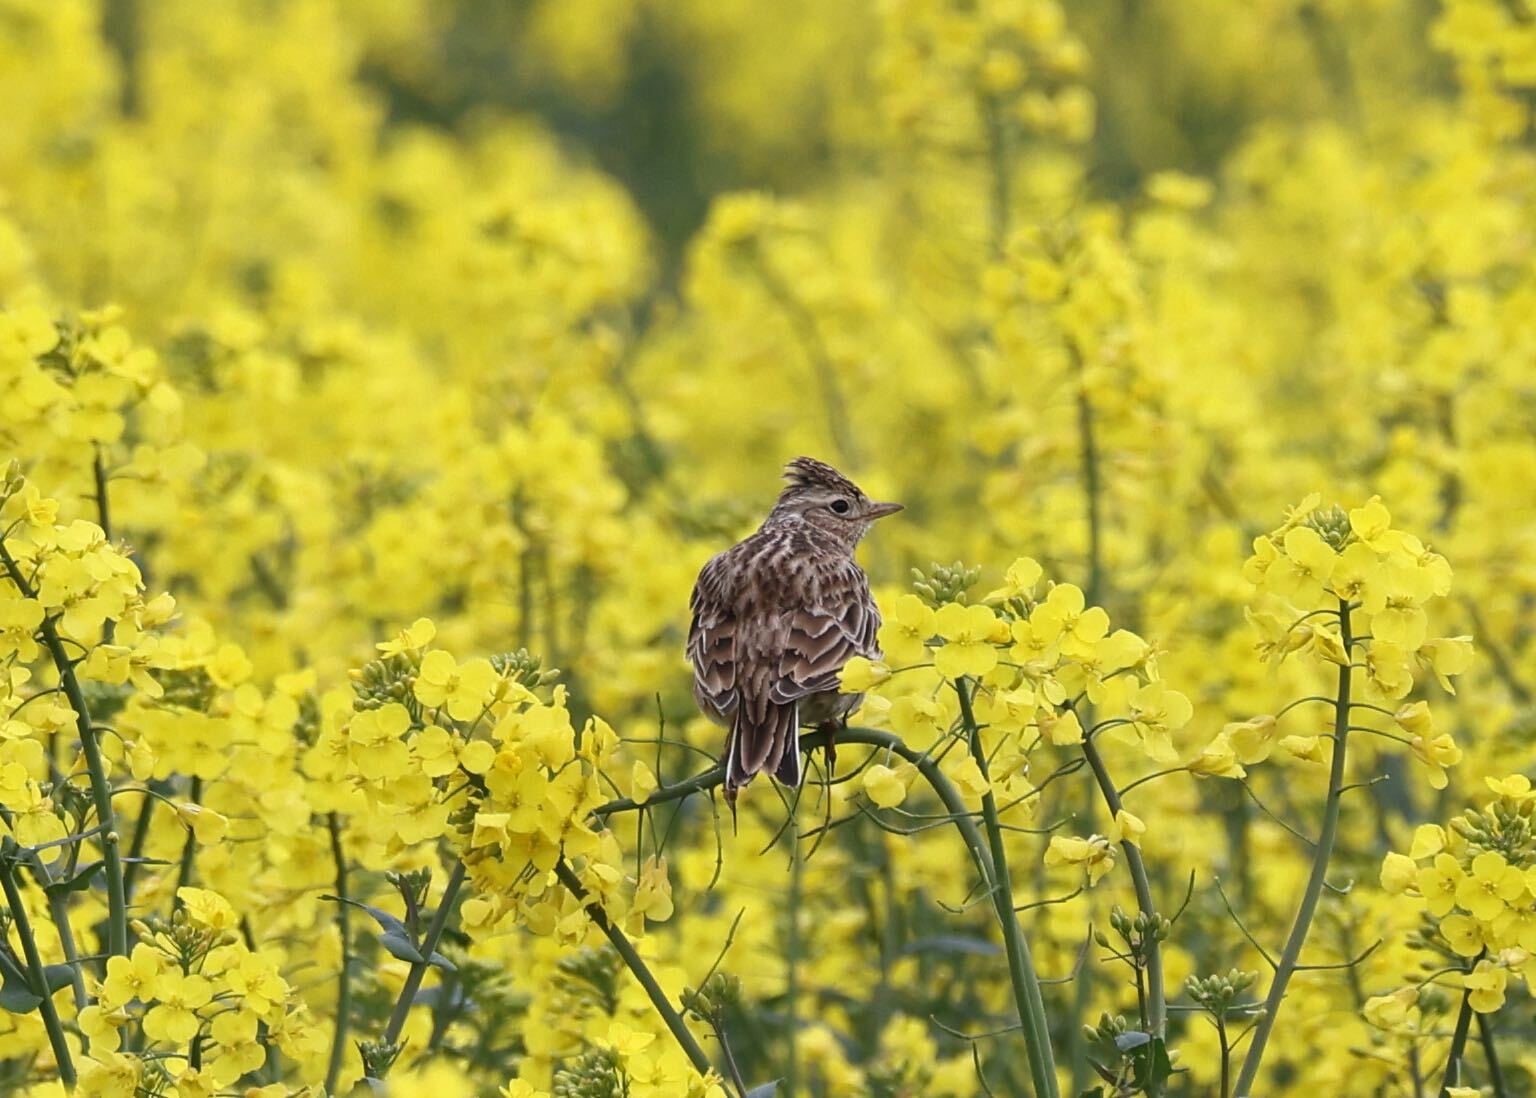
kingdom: Animalia
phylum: Chordata
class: Aves
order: Passeriformes
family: Alaudidae
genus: Alauda
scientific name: Alauda arvensis
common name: Eurasian skylark
